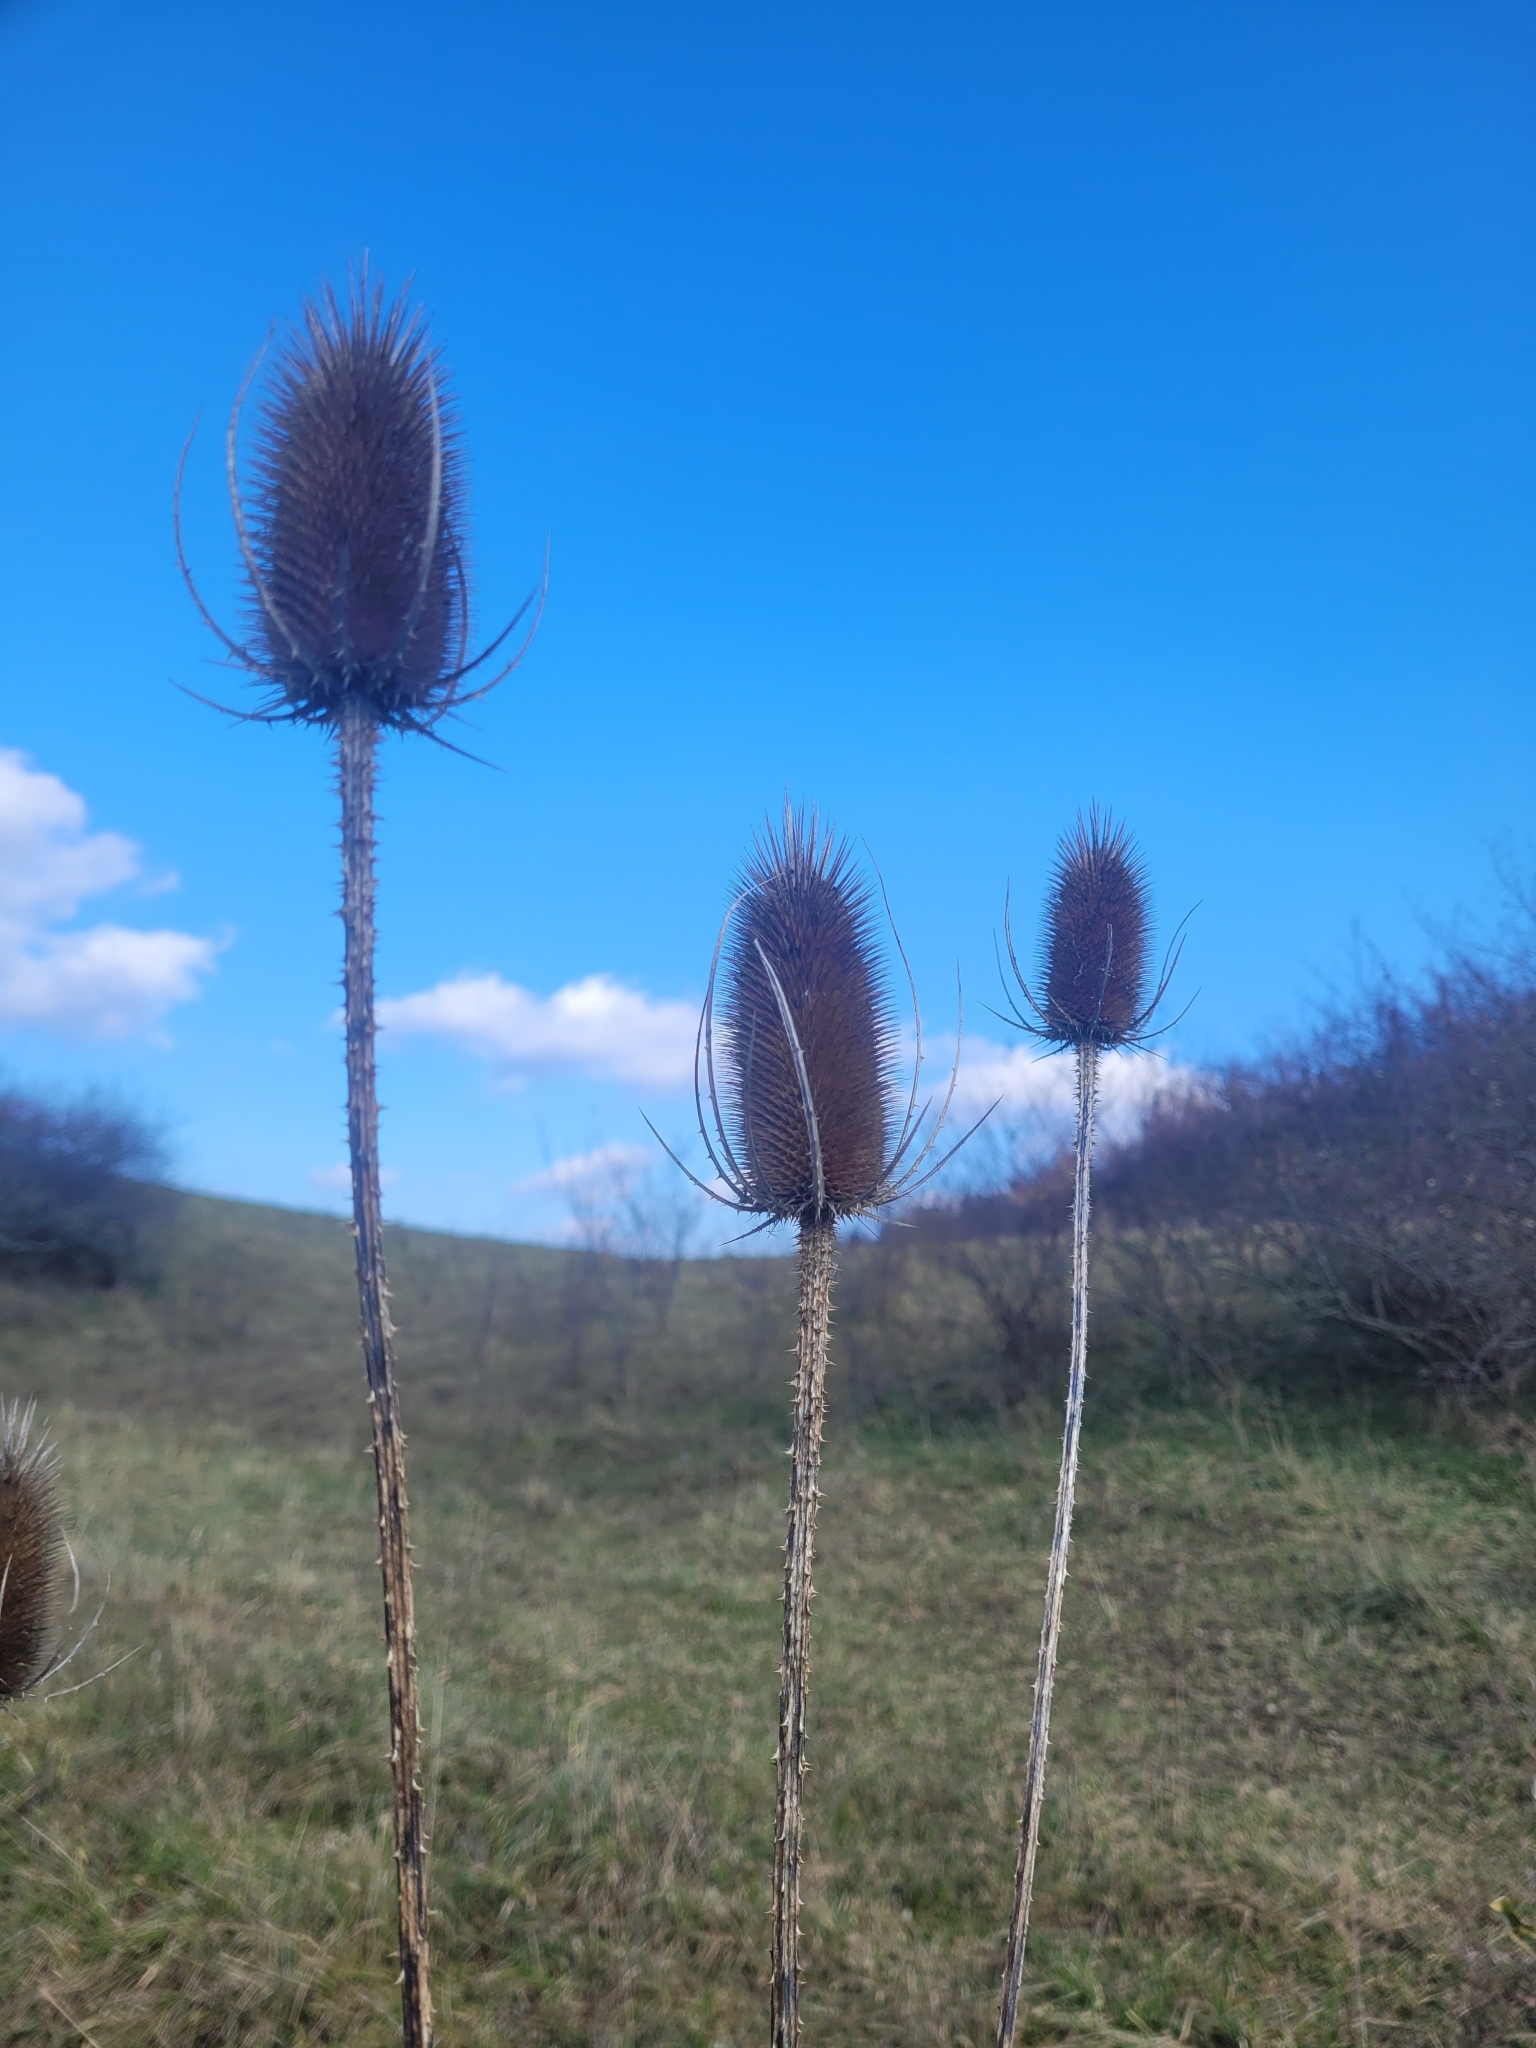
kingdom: Plantae
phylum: Tracheophyta
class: Magnoliopsida
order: Dipsacales
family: Caprifoliaceae
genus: Dipsacus
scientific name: Dipsacus fullonum
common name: Teasel
